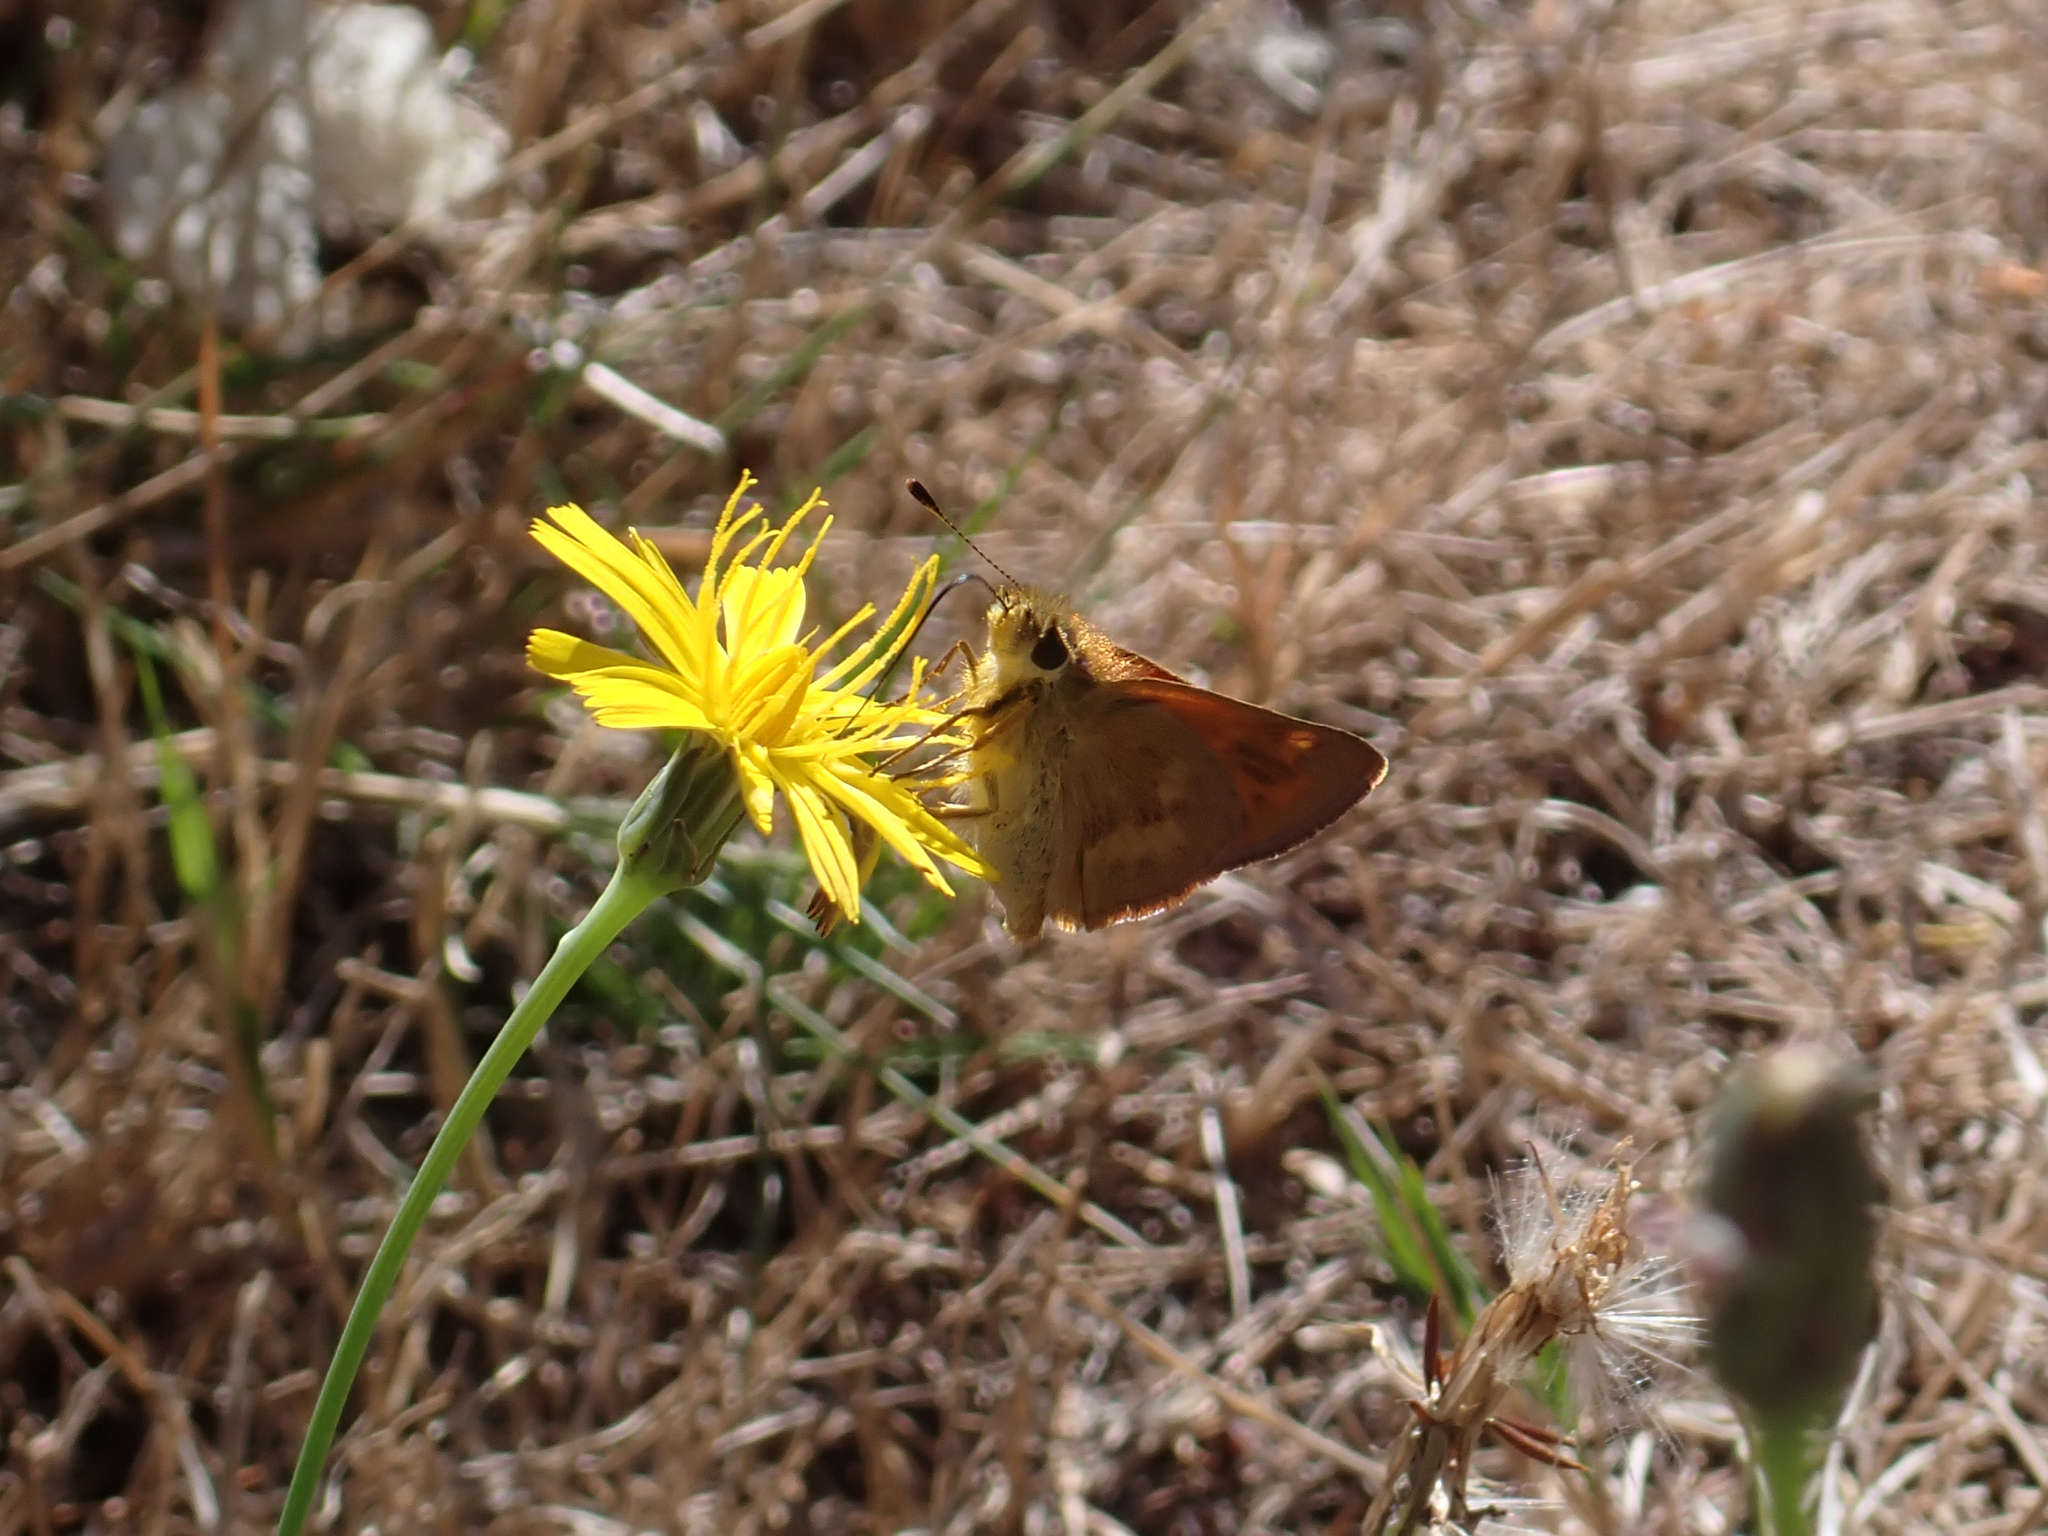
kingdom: Animalia
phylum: Arthropoda
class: Insecta
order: Lepidoptera
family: Hesperiidae
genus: Ochlodes
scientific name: Ochlodes sylvanoides
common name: Woodland skipper
